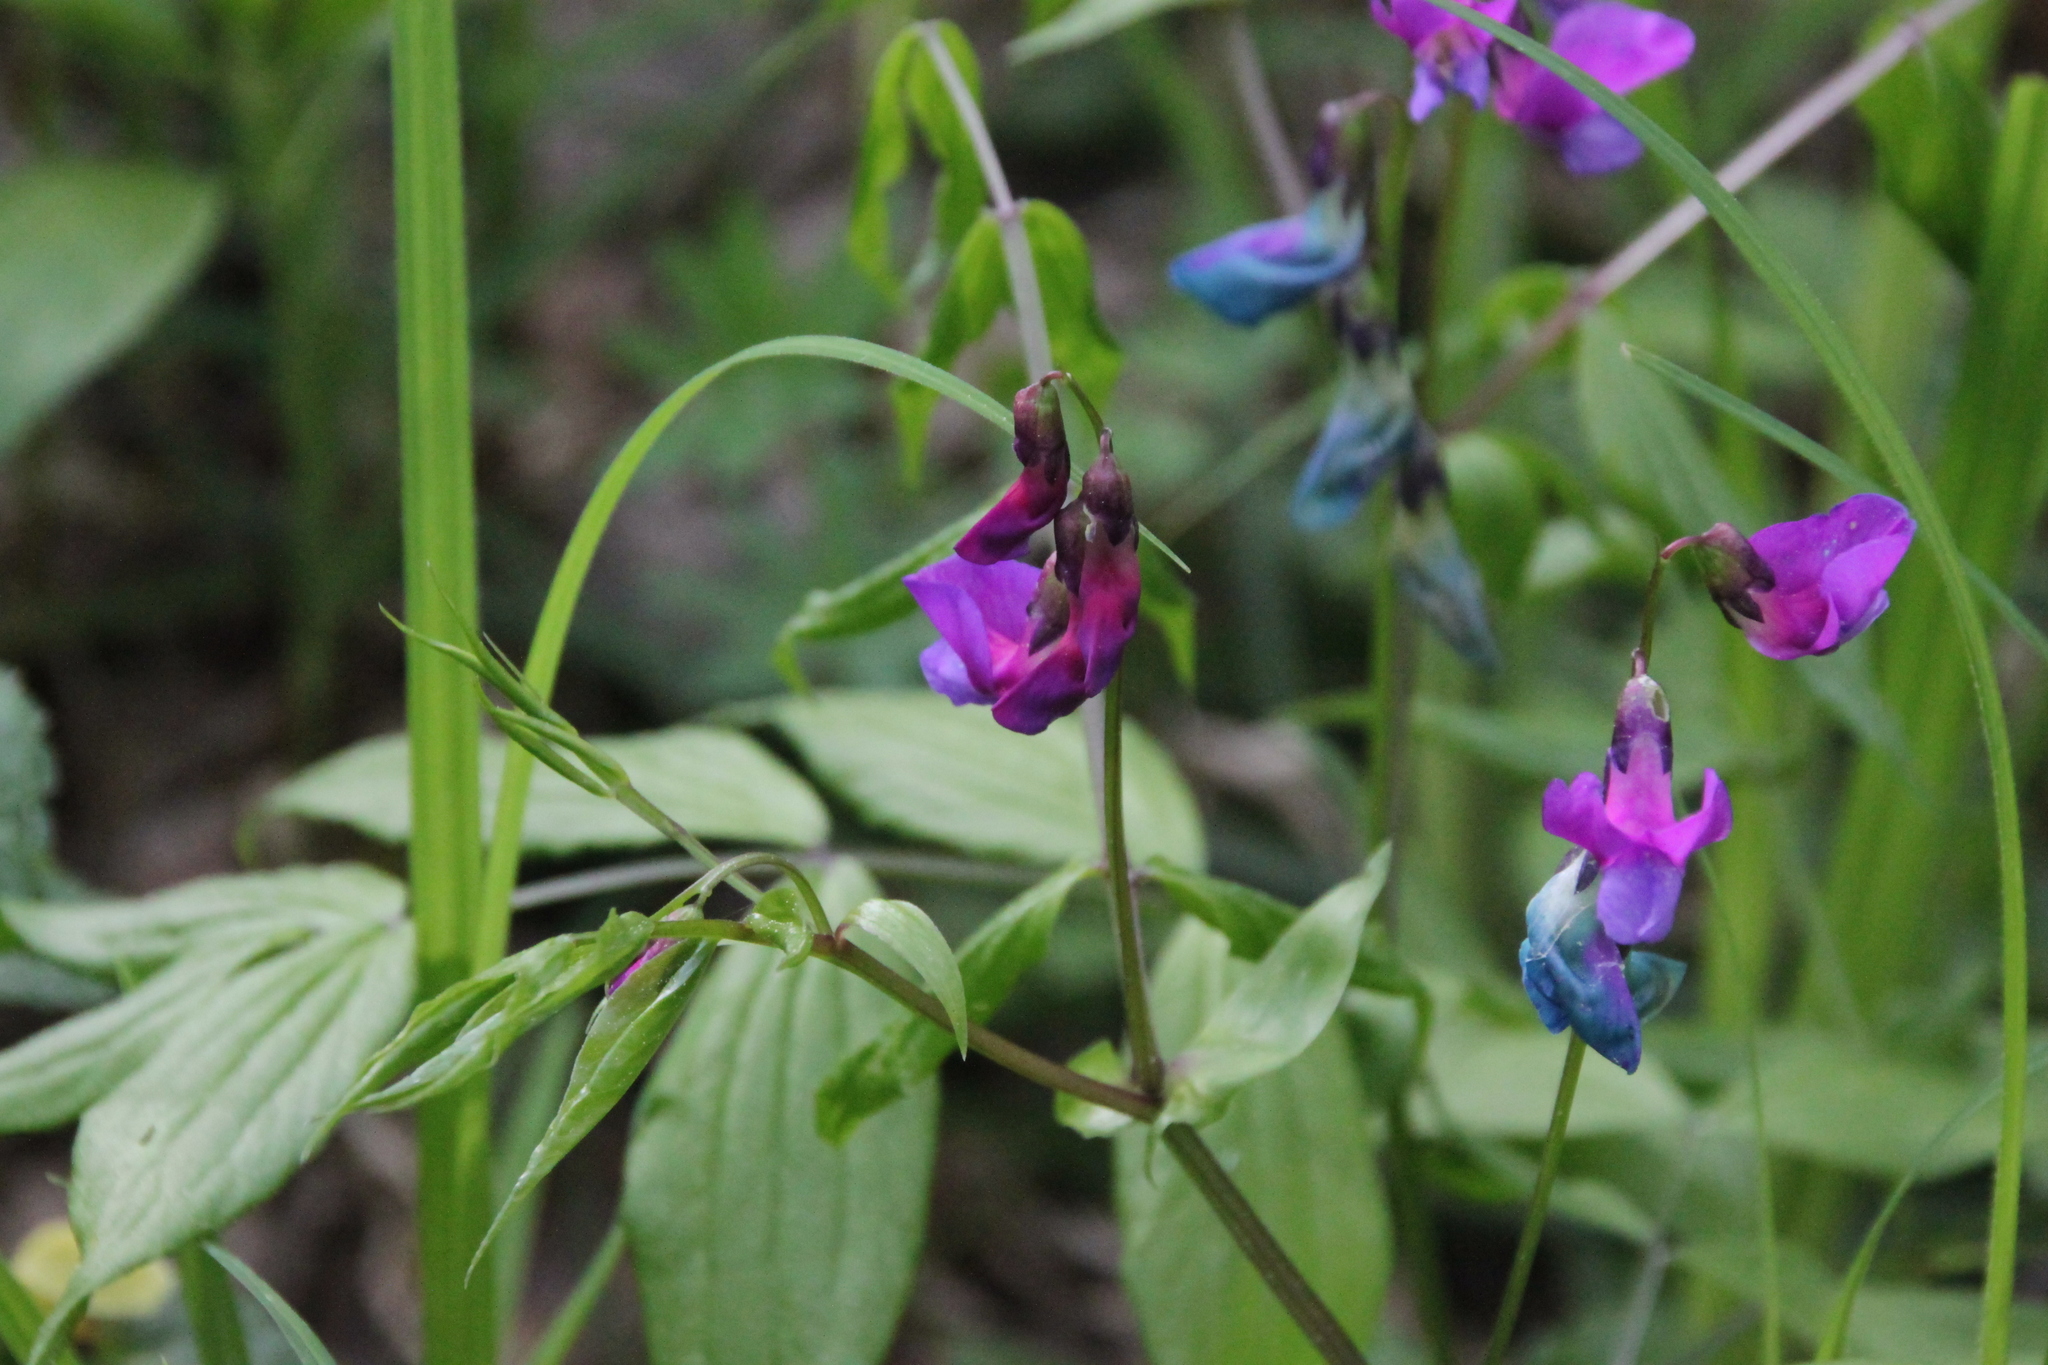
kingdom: Plantae
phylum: Tracheophyta
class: Magnoliopsida
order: Fabales
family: Fabaceae
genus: Lathyrus
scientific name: Lathyrus vernus
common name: Spring pea
